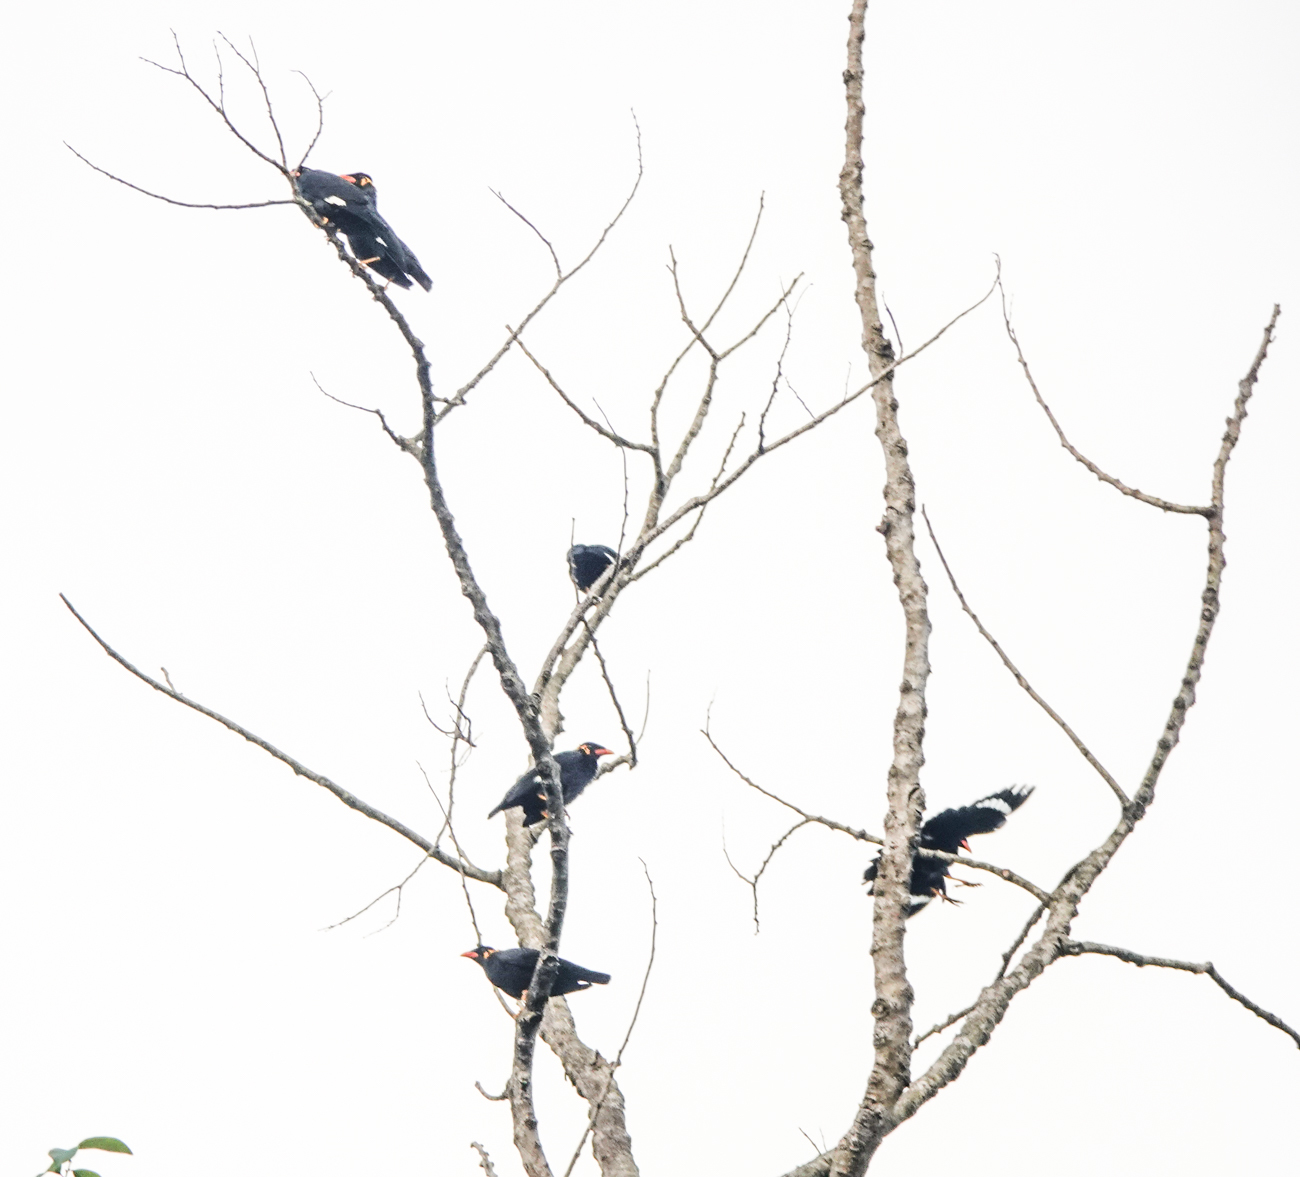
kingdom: Animalia
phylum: Chordata
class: Aves
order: Passeriformes
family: Sturnidae
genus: Gracula
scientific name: Gracula religiosa
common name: Common hill myna
